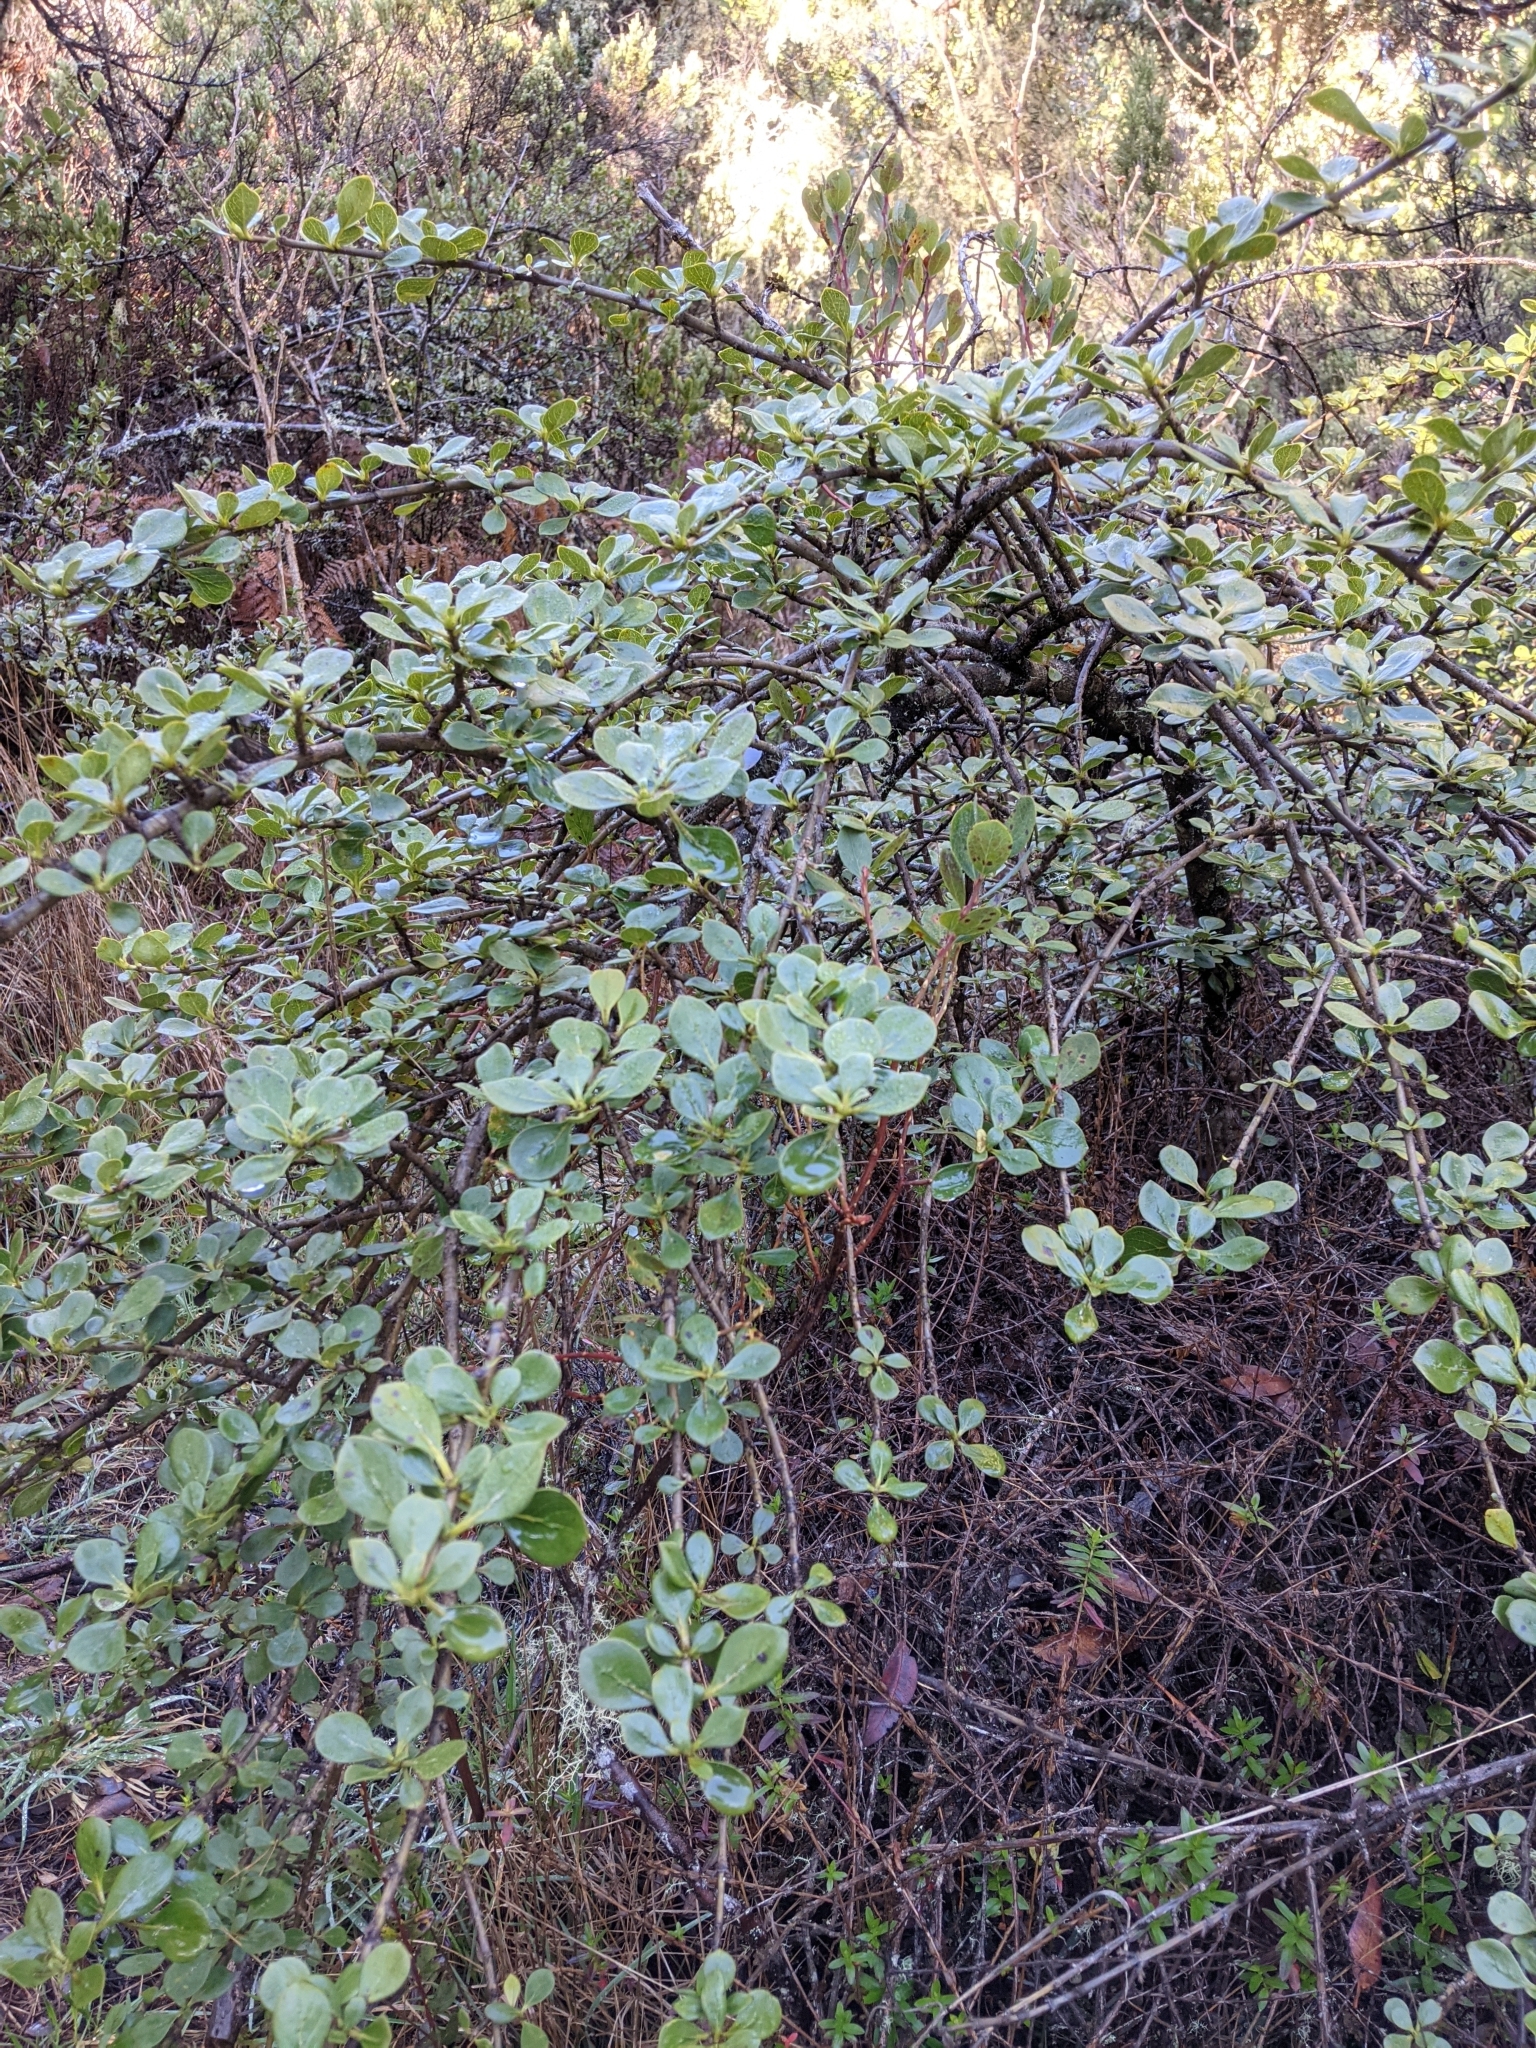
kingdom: Plantae
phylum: Tracheophyta
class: Magnoliopsida
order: Gentianales
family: Rubiaceae
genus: Coprosma
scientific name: Coprosma montana
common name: Alpine mirror plant
